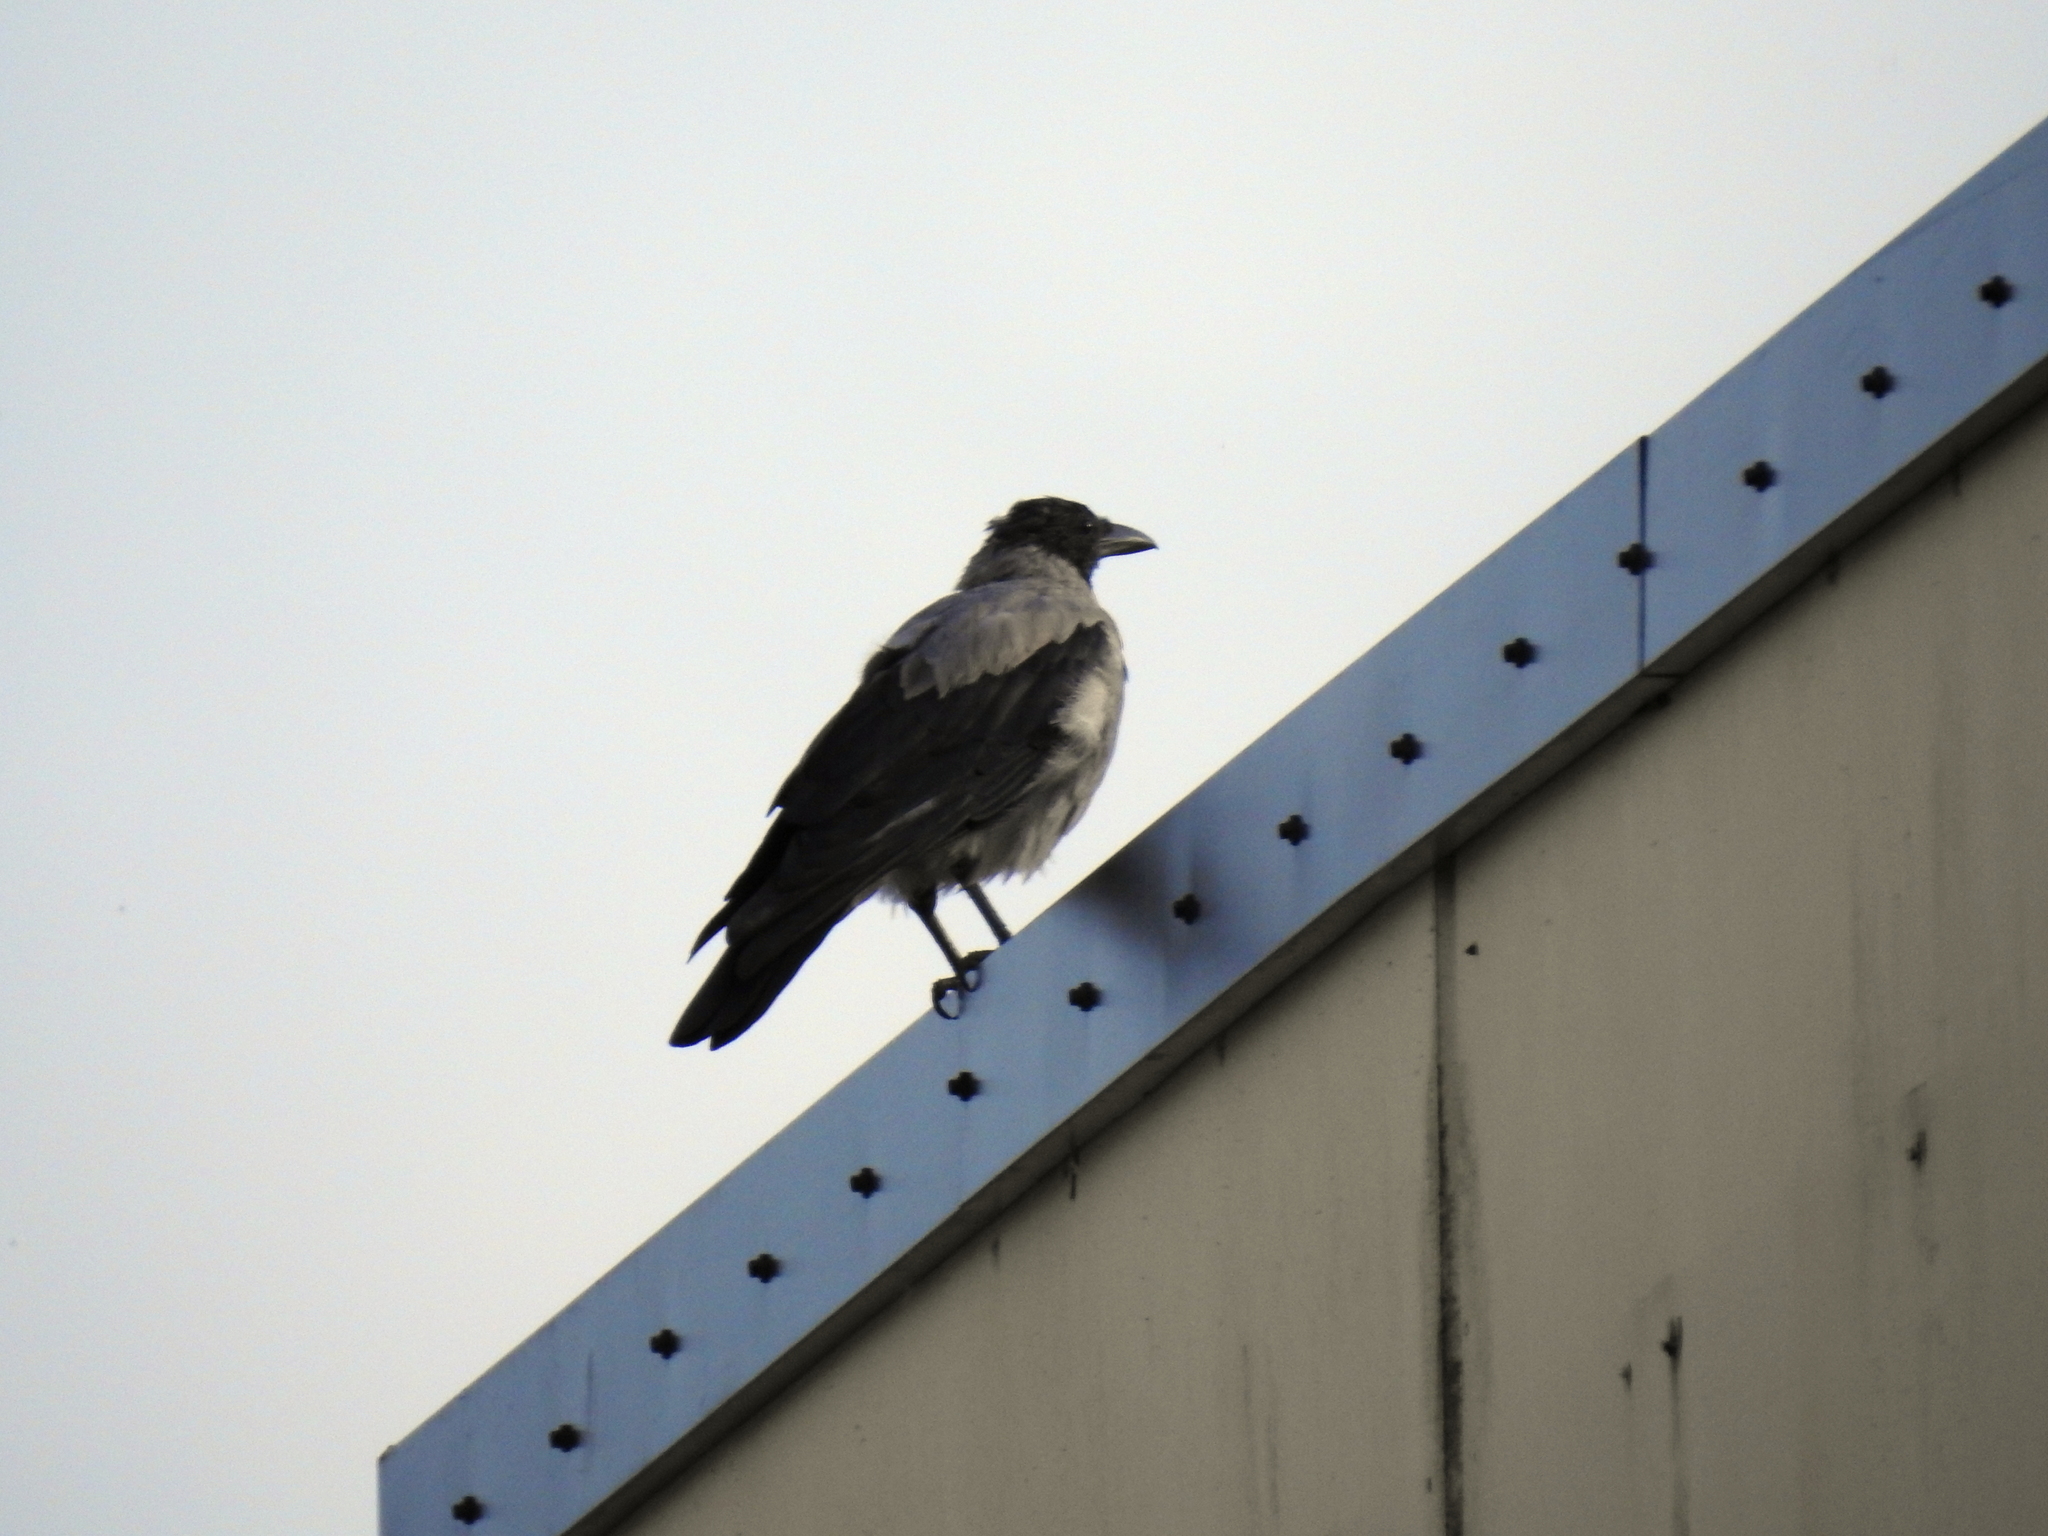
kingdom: Animalia
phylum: Chordata
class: Aves
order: Passeriformes
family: Corvidae
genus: Corvus
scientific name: Corvus cornix
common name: Hooded crow
